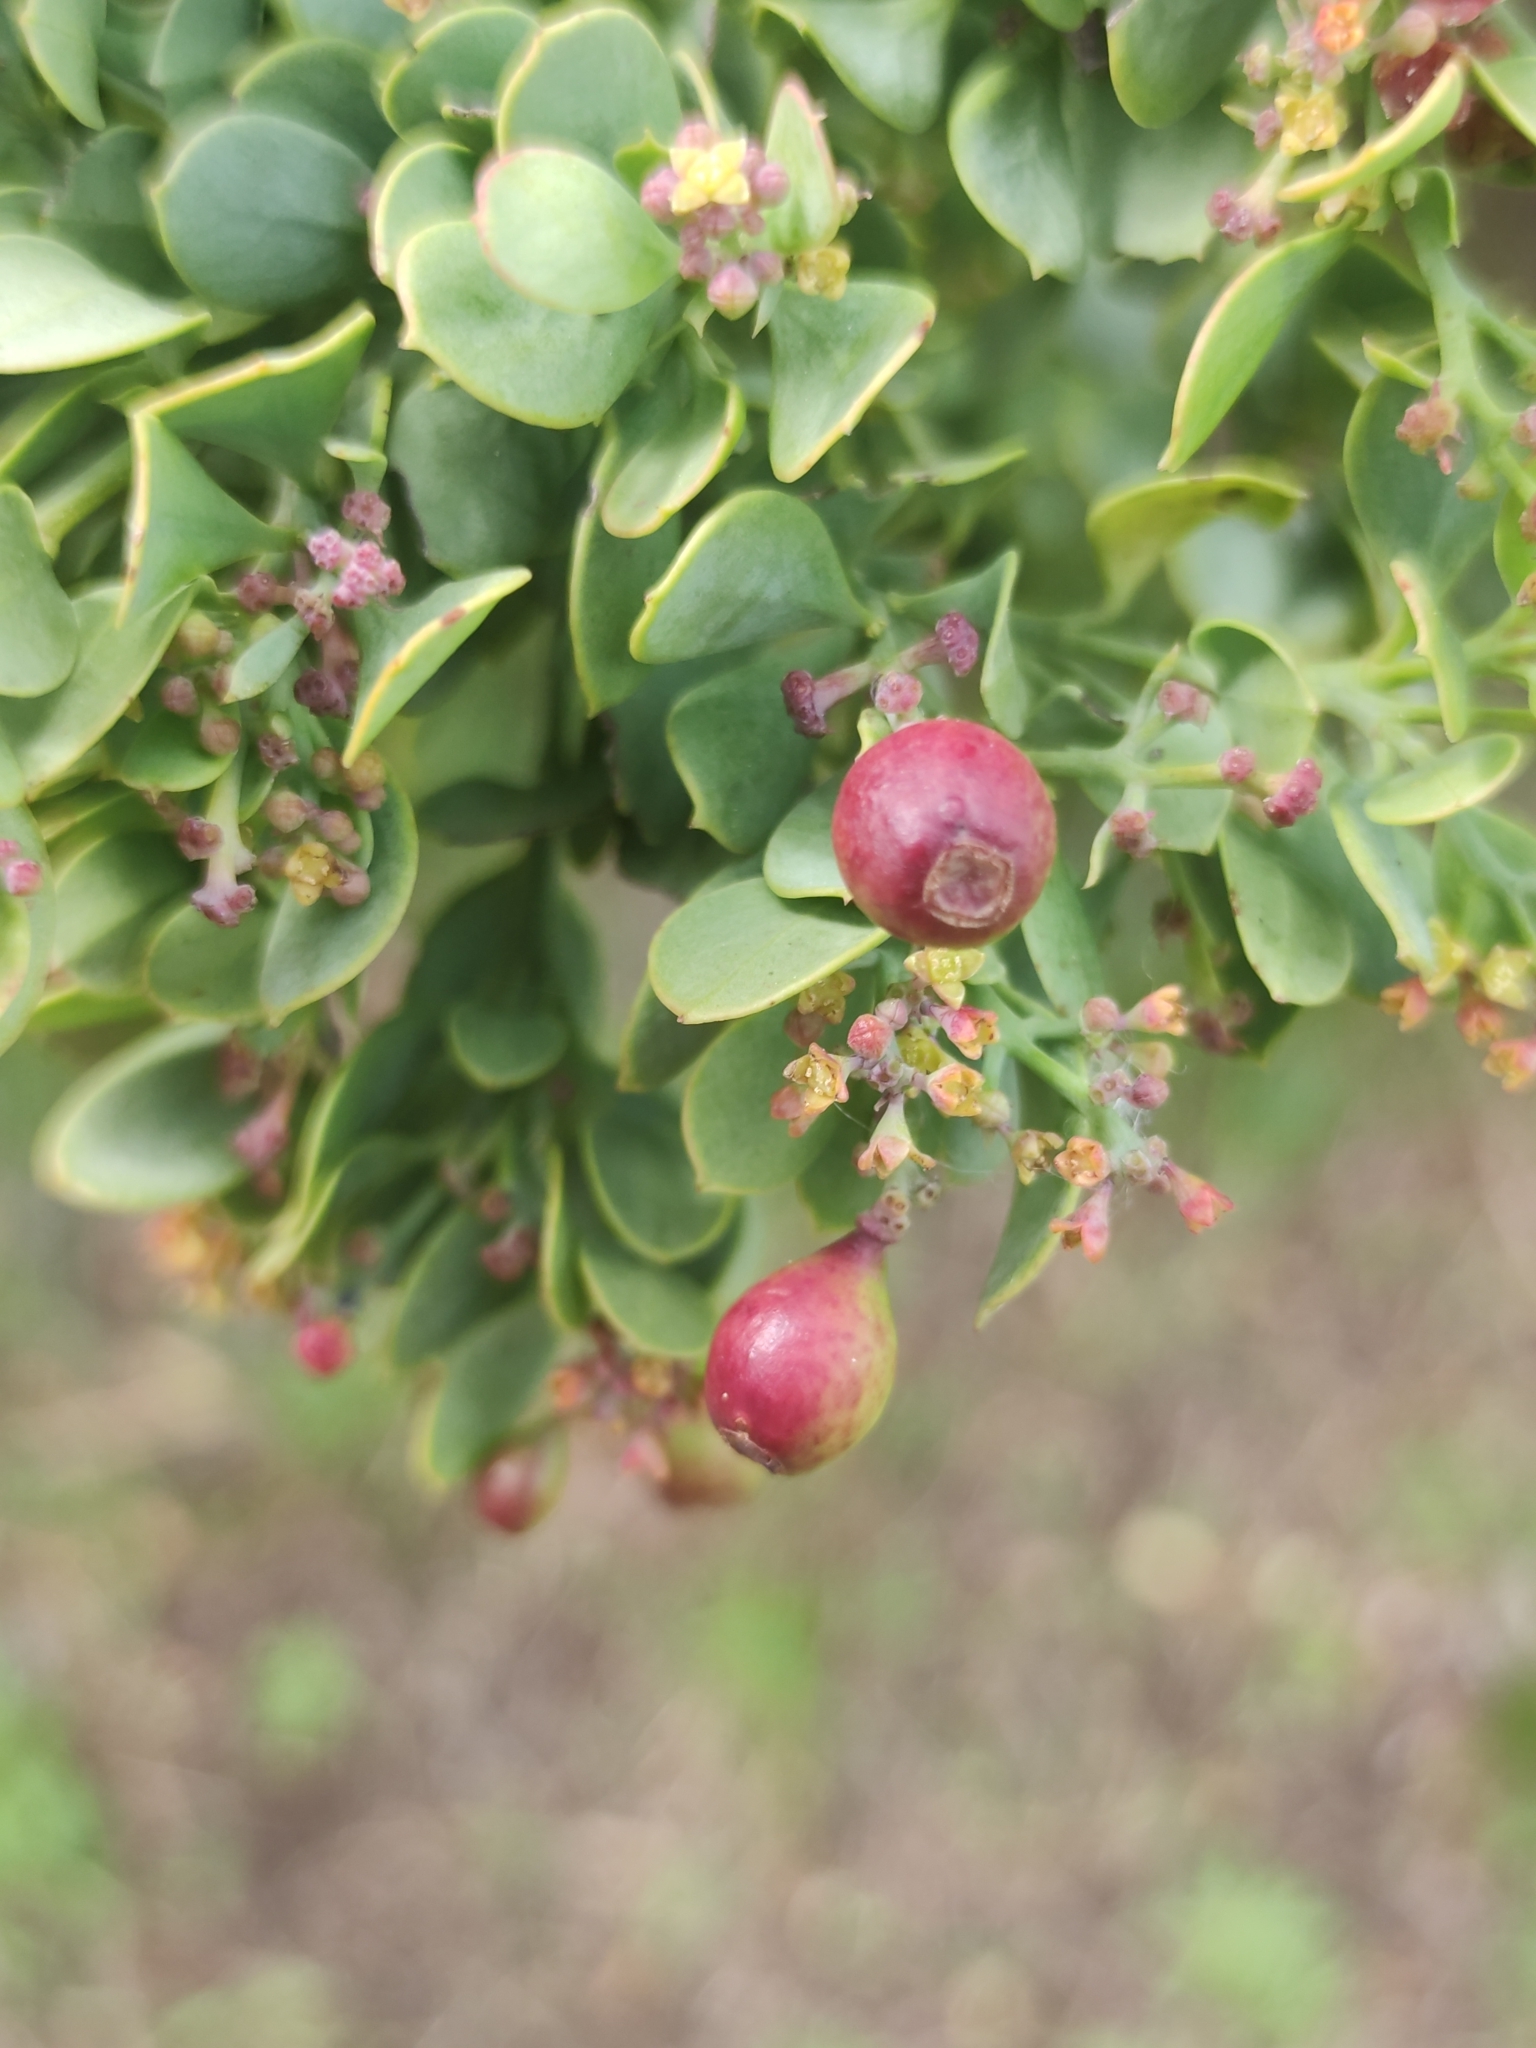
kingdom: Plantae
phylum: Tracheophyta
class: Magnoliopsida
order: Santalales
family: Santalaceae
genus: Osyris
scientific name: Osyris compressa
